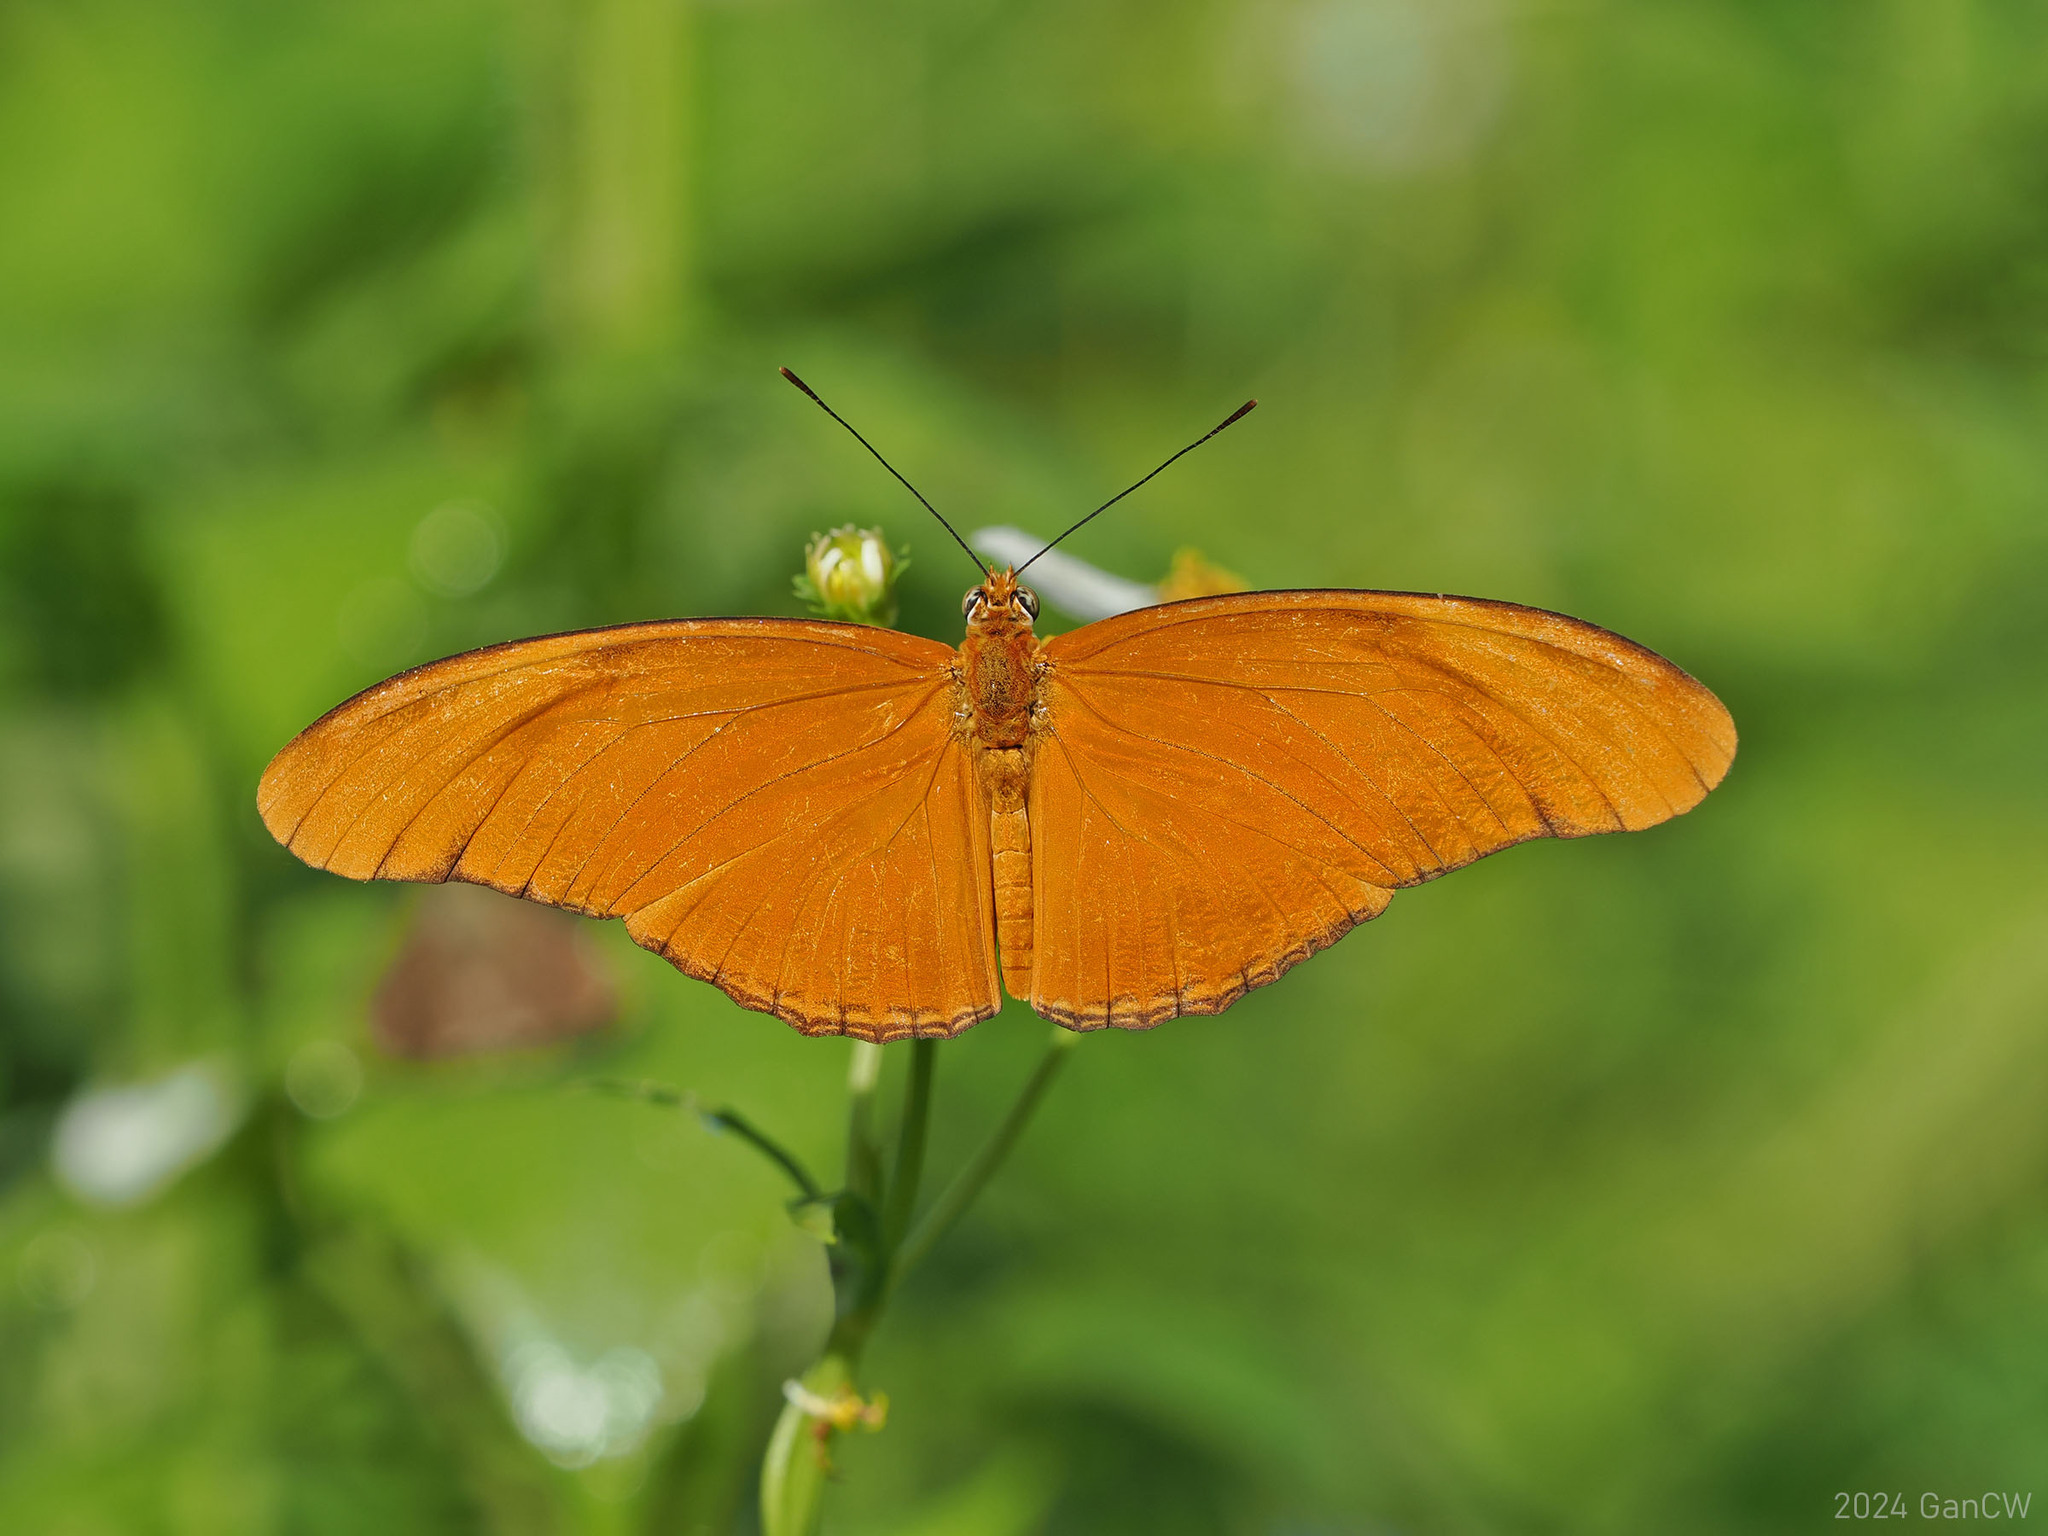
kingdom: Animalia
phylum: Arthropoda
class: Insecta
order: Lepidoptera
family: Nymphalidae
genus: Dryas
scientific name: Dryas iulia
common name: Flambeau
